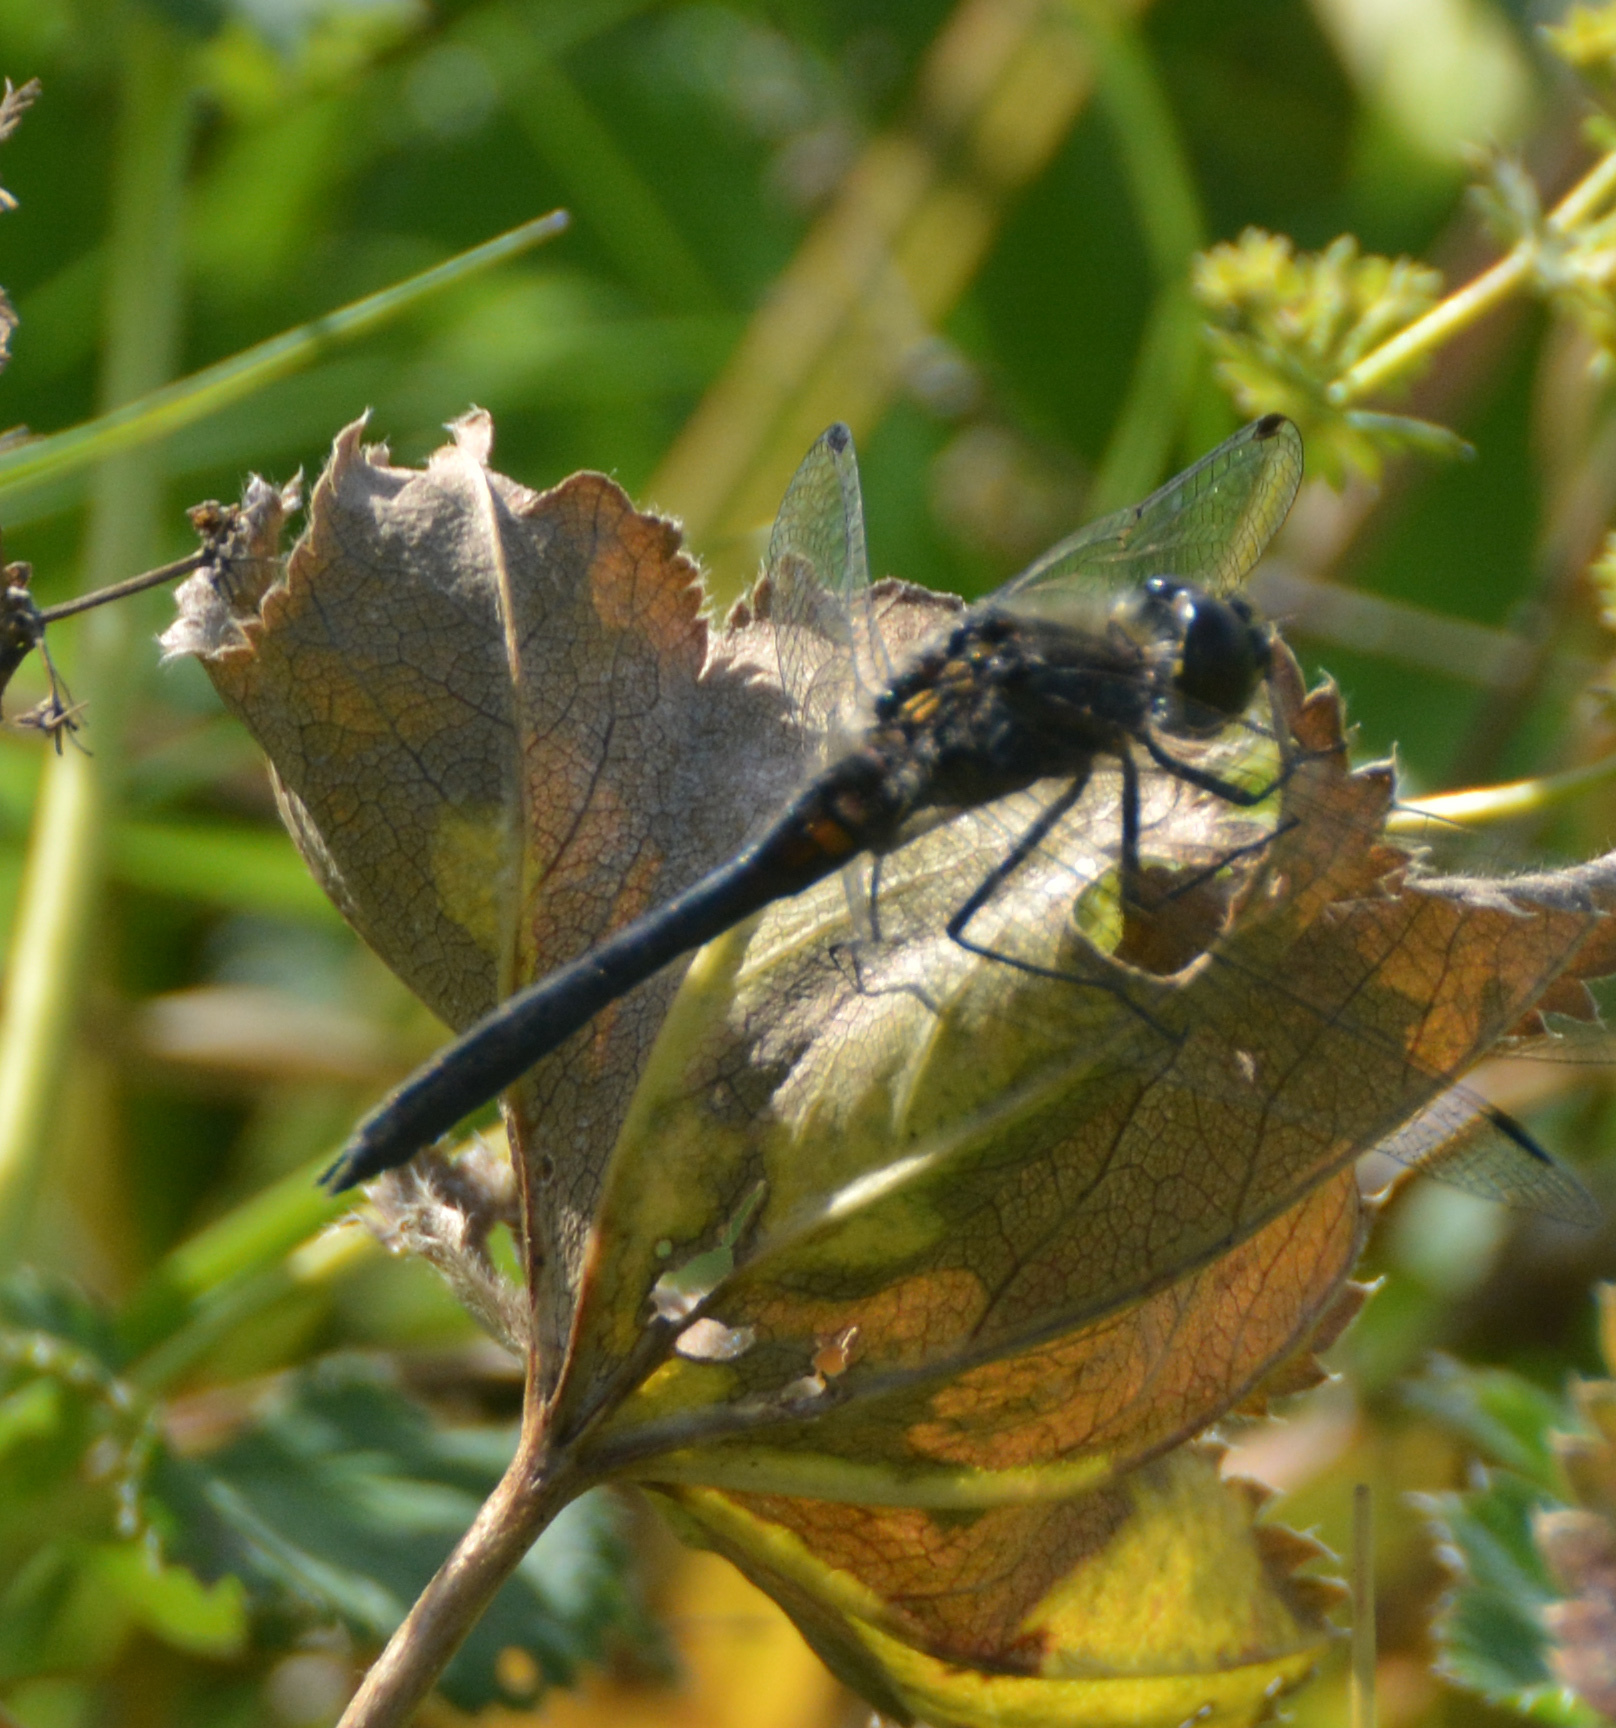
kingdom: Animalia
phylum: Arthropoda
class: Insecta
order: Odonata
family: Libellulidae
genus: Sympetrum
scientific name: Sympetrum danae
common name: Black darter
